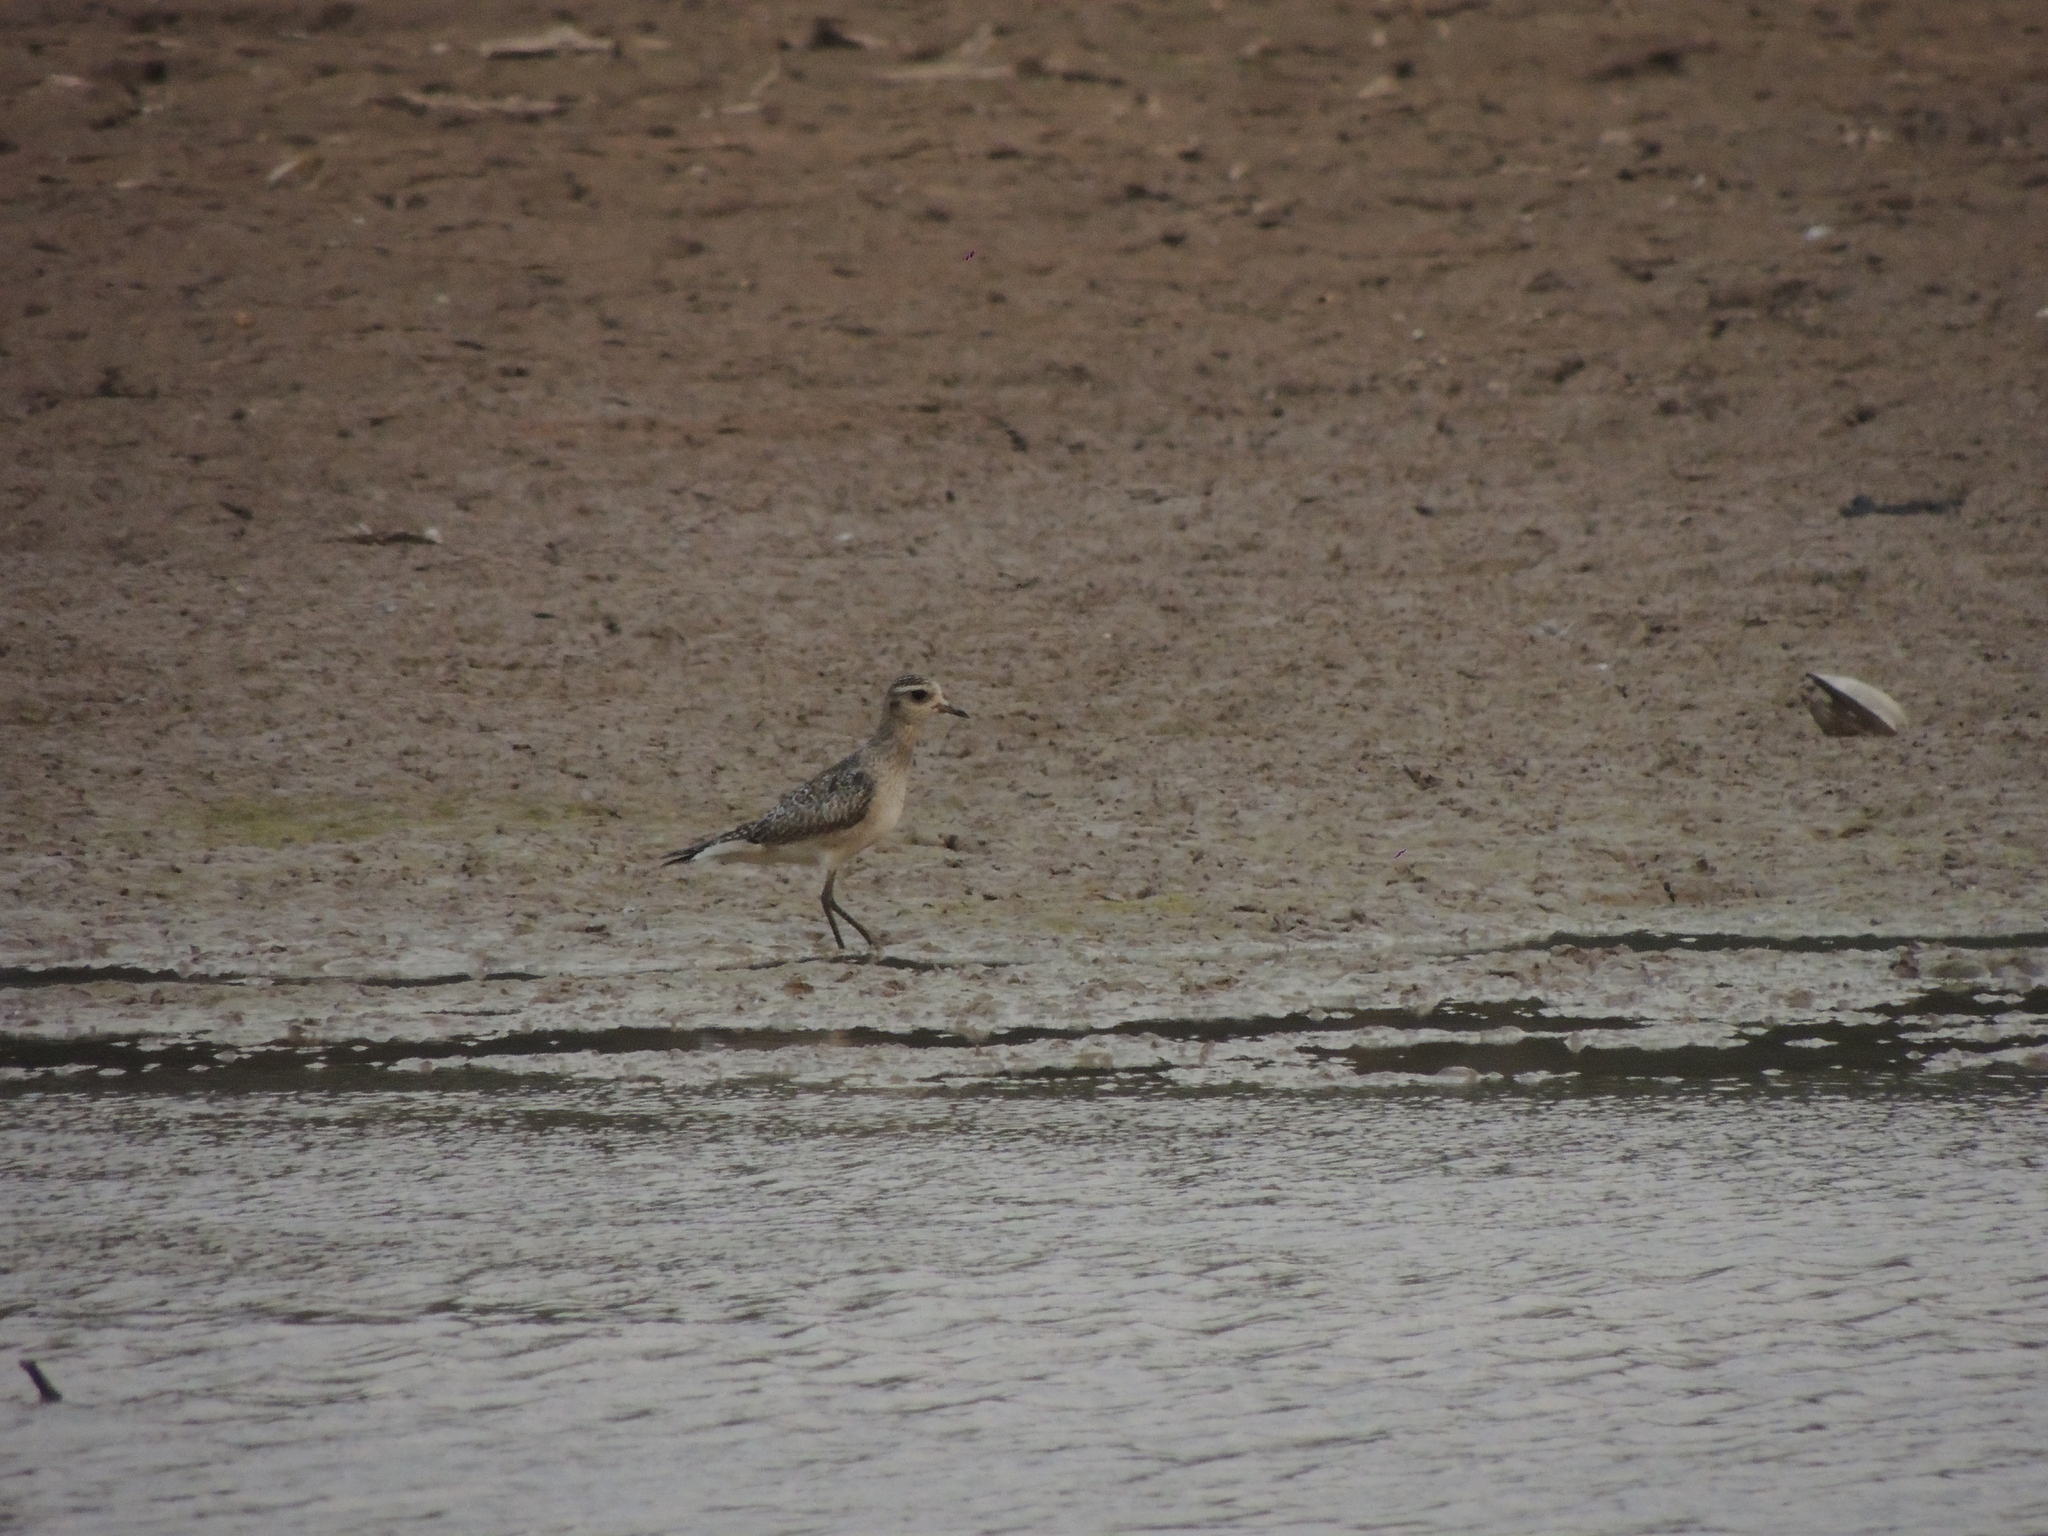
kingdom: Animalia
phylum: Chordata
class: Aves
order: Charadriiformes
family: Charadriidae
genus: Pluvialis
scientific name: Pluvialis dominica
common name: American golden plover
